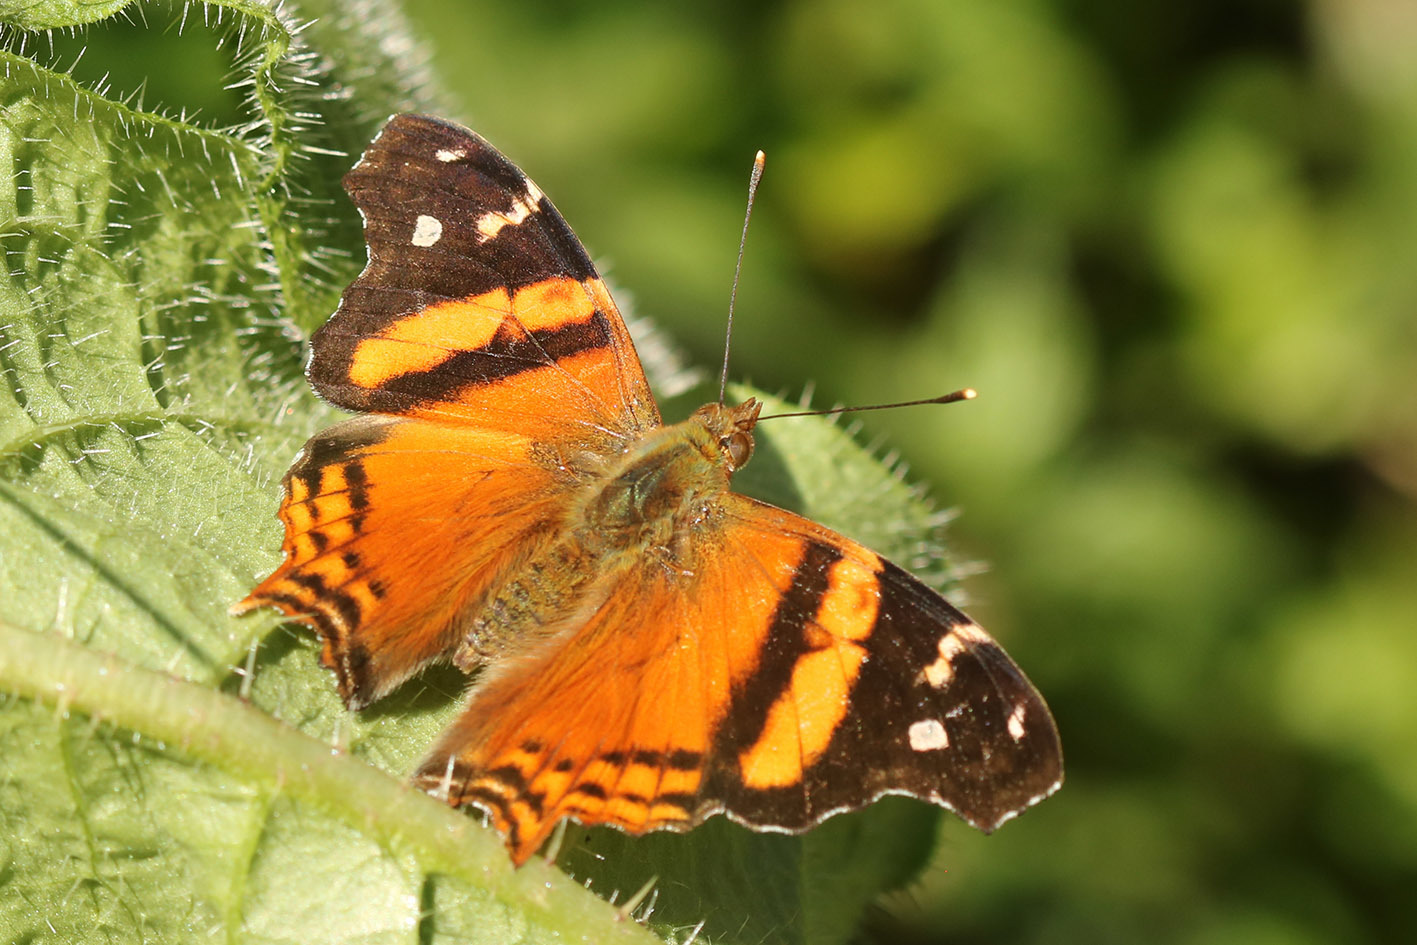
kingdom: Animalia
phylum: Arthropoda
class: Insecta
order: Lepidoptera
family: Nymphalidae
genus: Hypanartia
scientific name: Hypanartia bella
